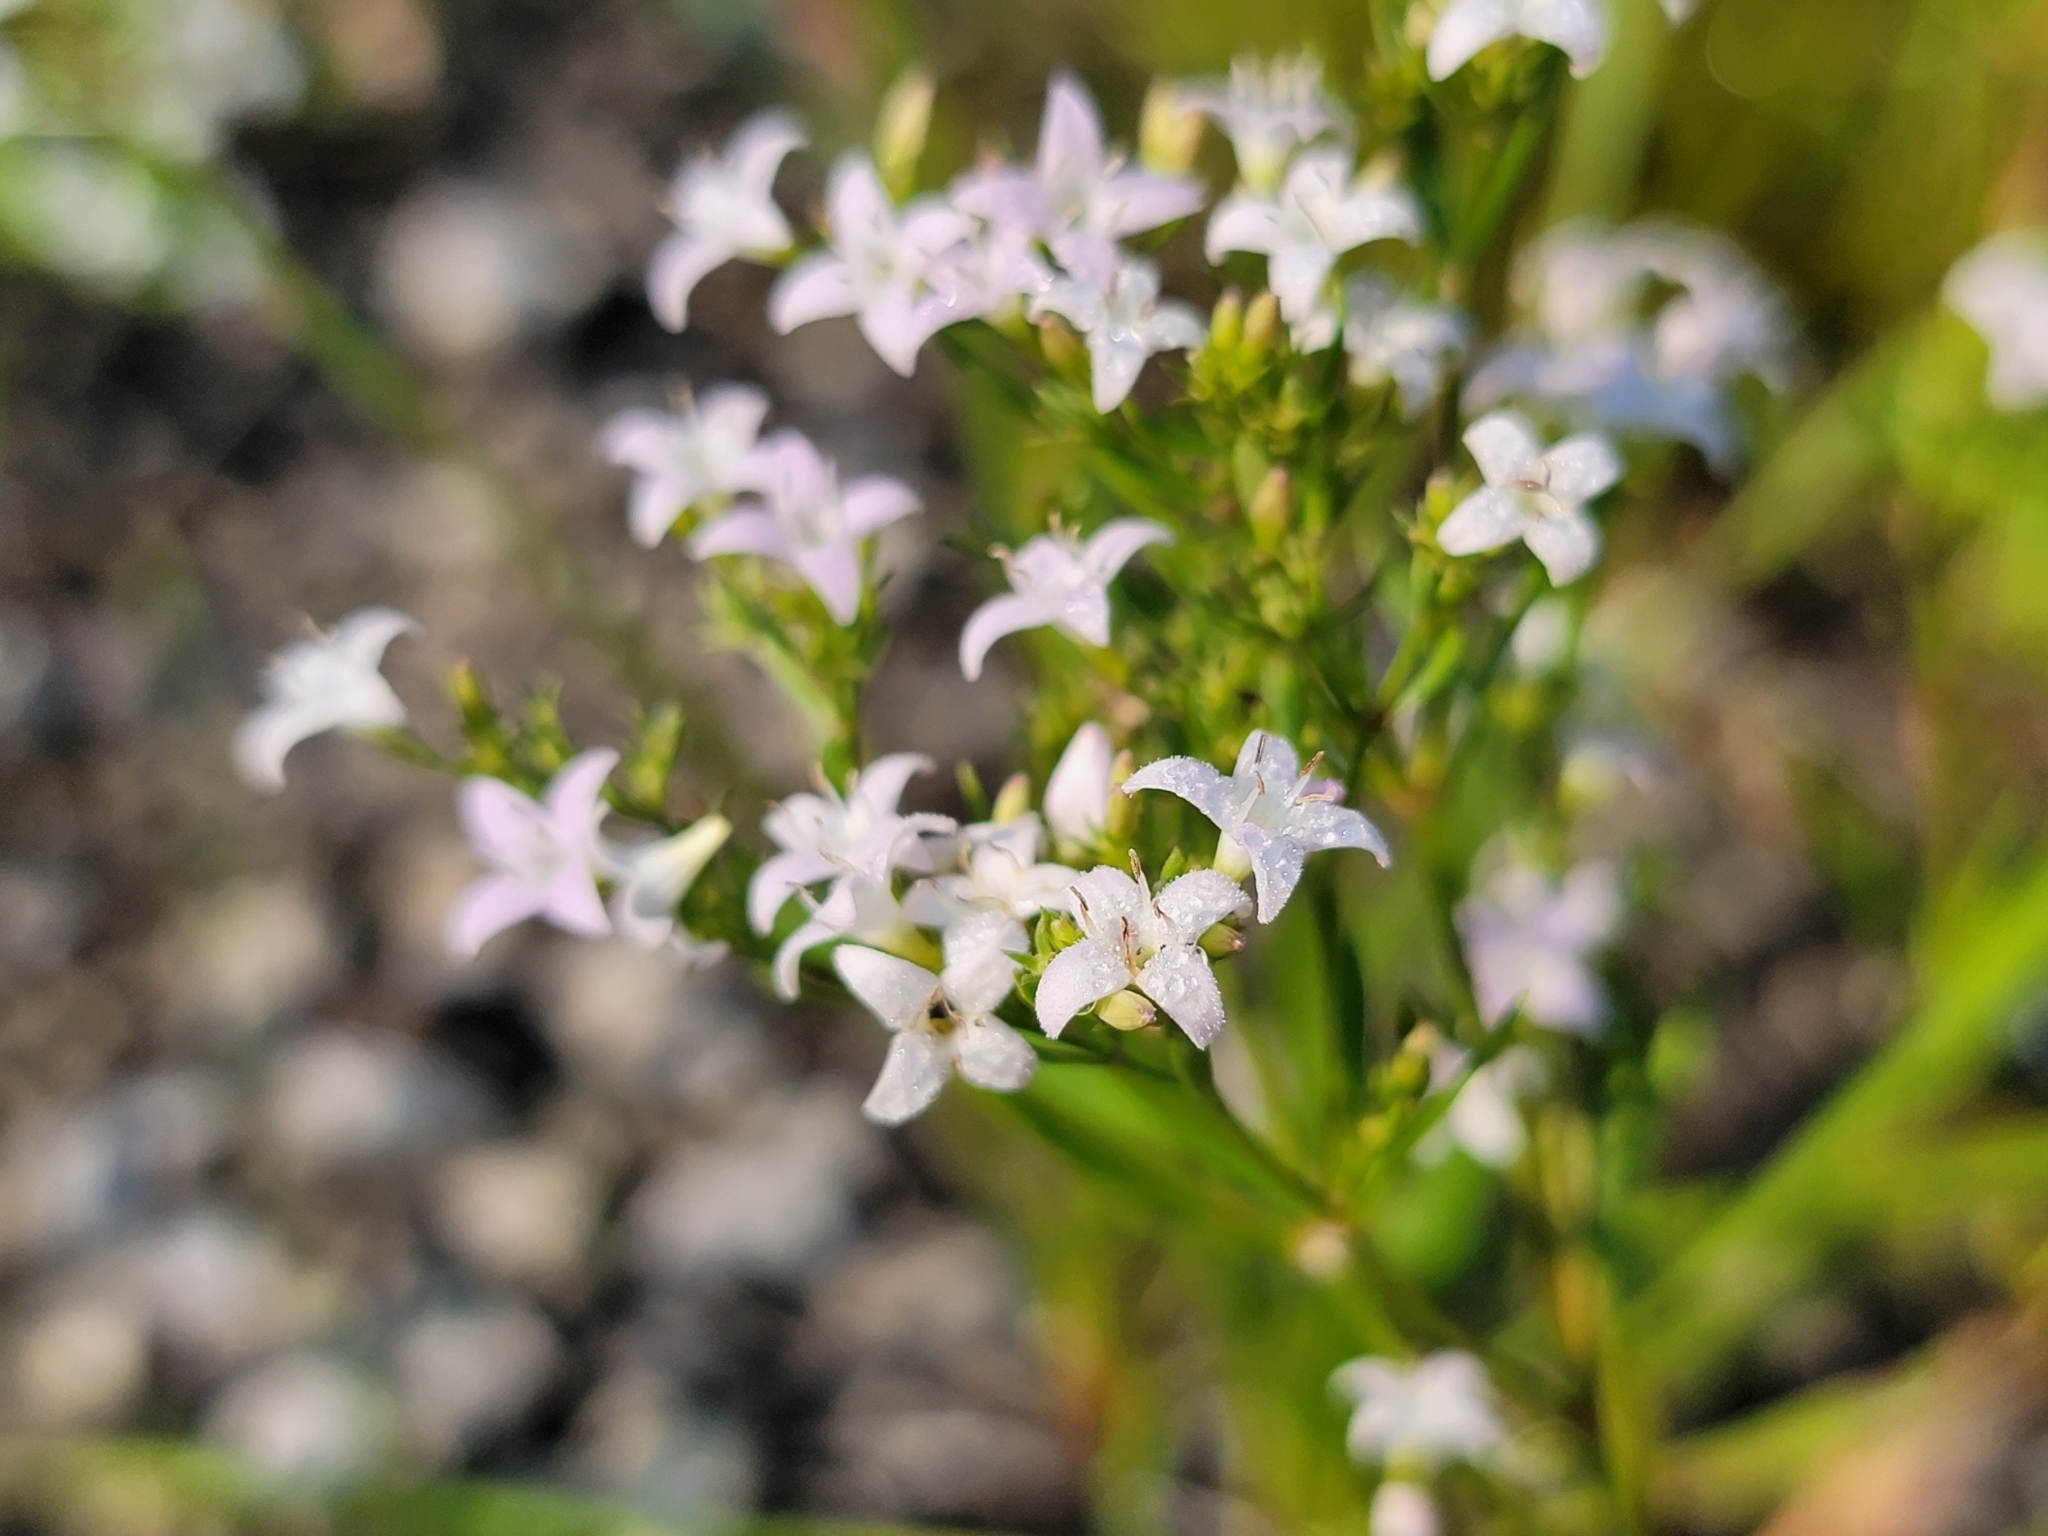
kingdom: Plantae
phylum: Tracheophyta
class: Magnoliopsida
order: Gentianales
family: Rubiaceae
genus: Houstonia
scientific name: Houstonia longifolia
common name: Long-leaved bluets
